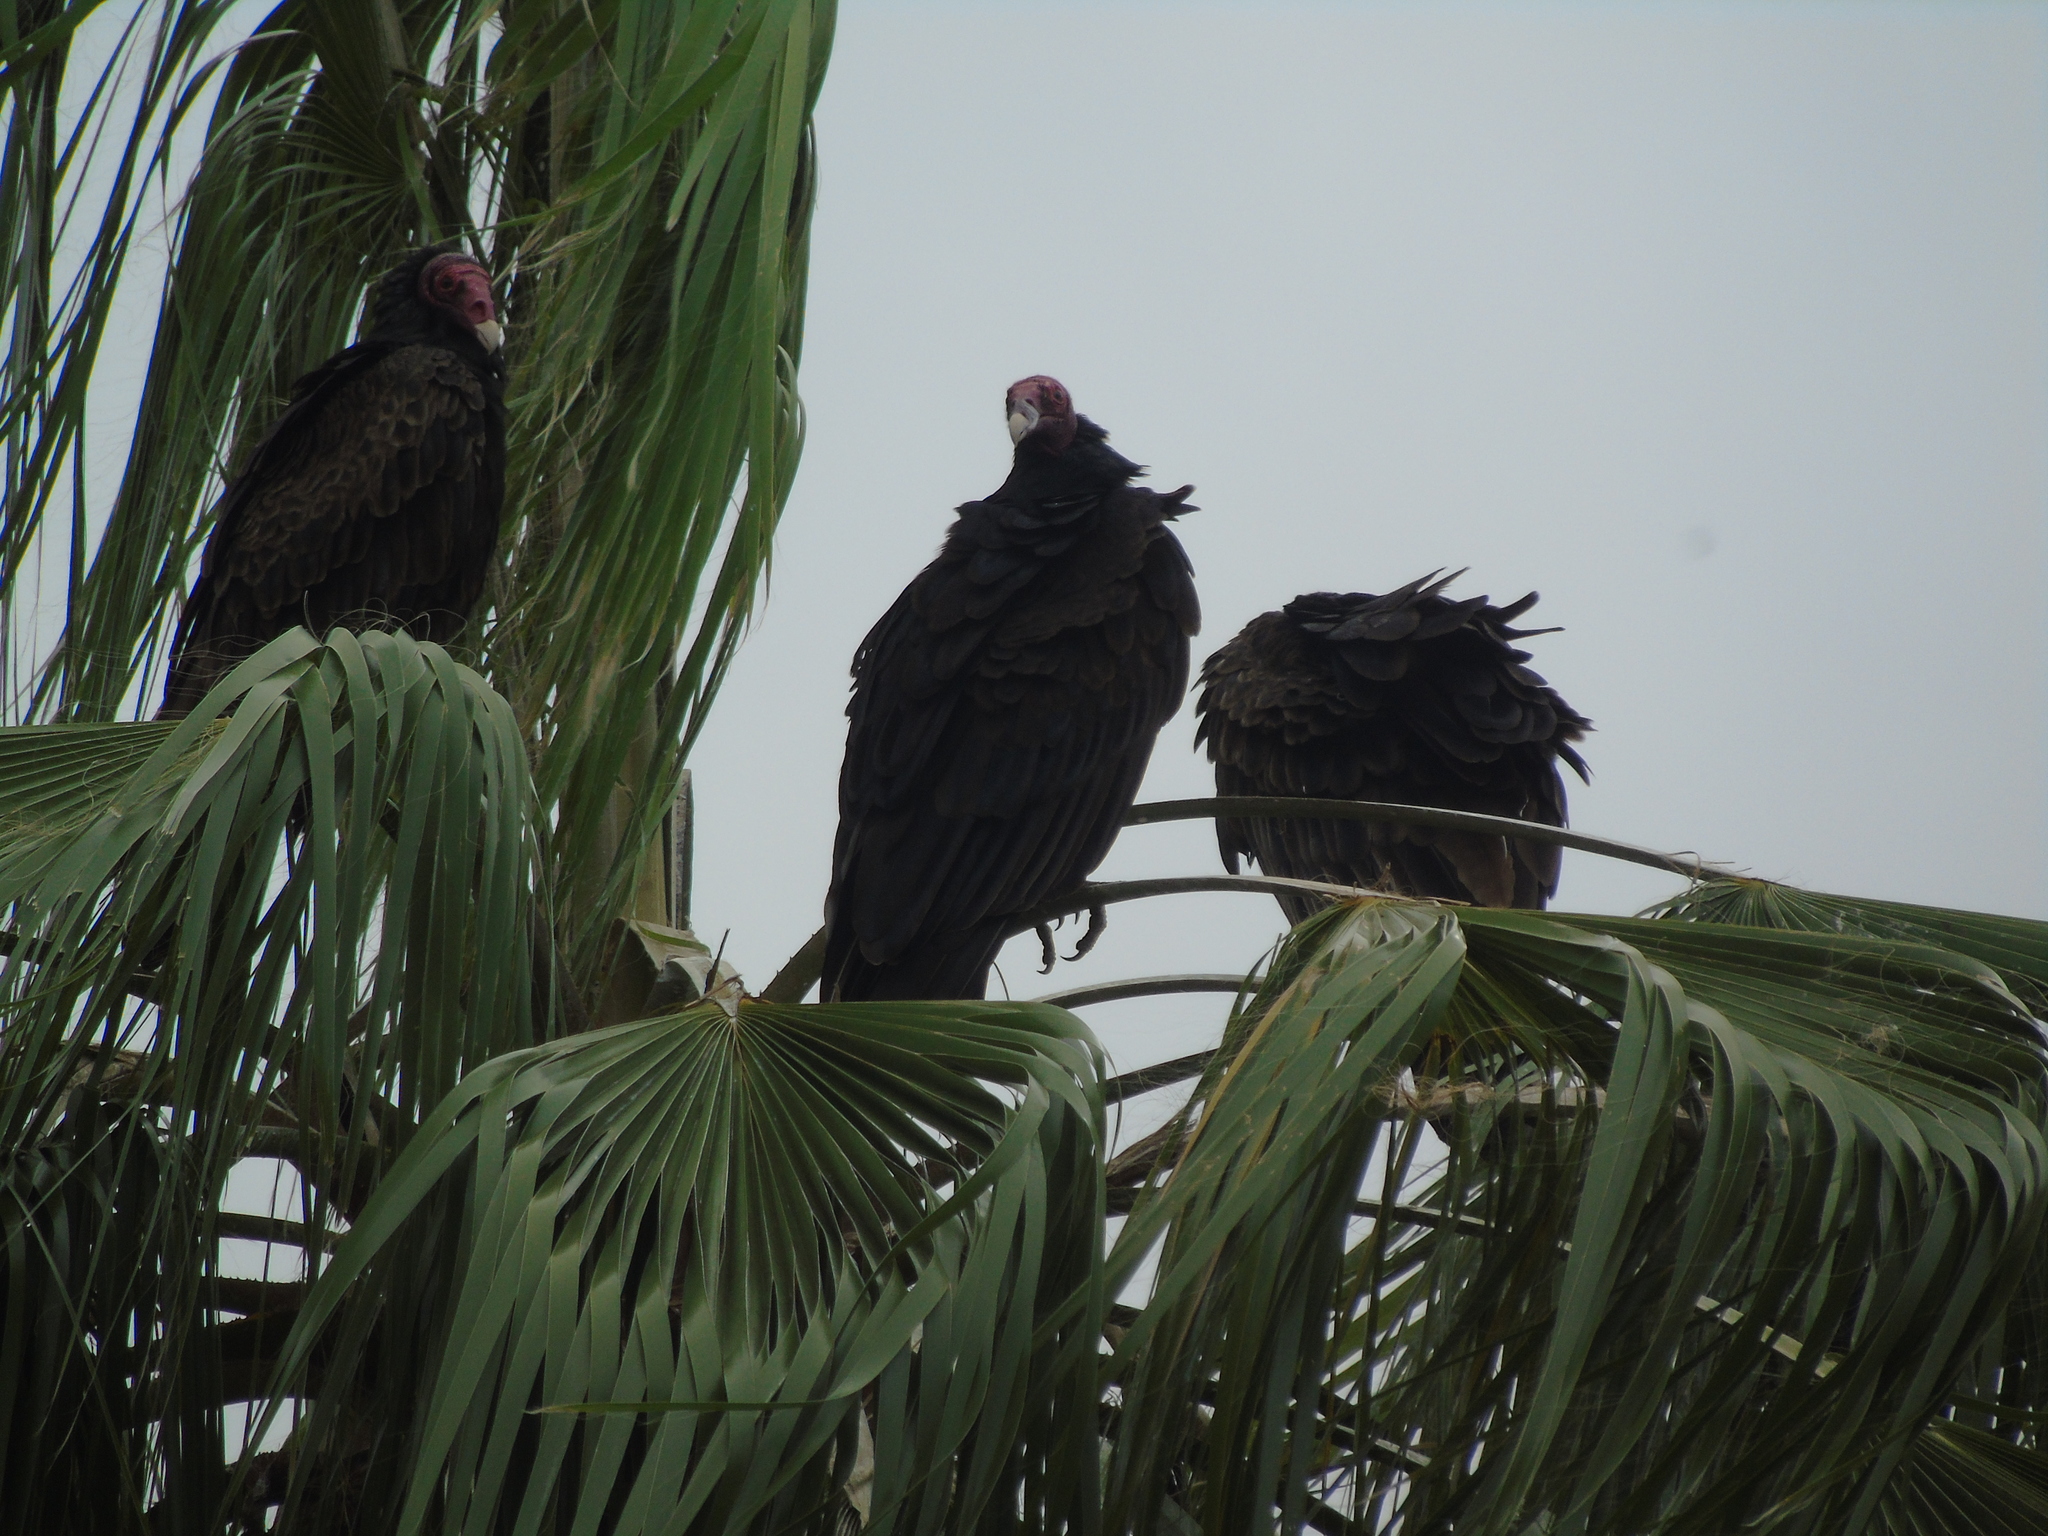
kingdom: Animalia
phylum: Chordata
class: Aves
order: Accipitriformes
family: Cathartidae
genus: Cathartes
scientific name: Cathartes aura
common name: Turkey vulture
